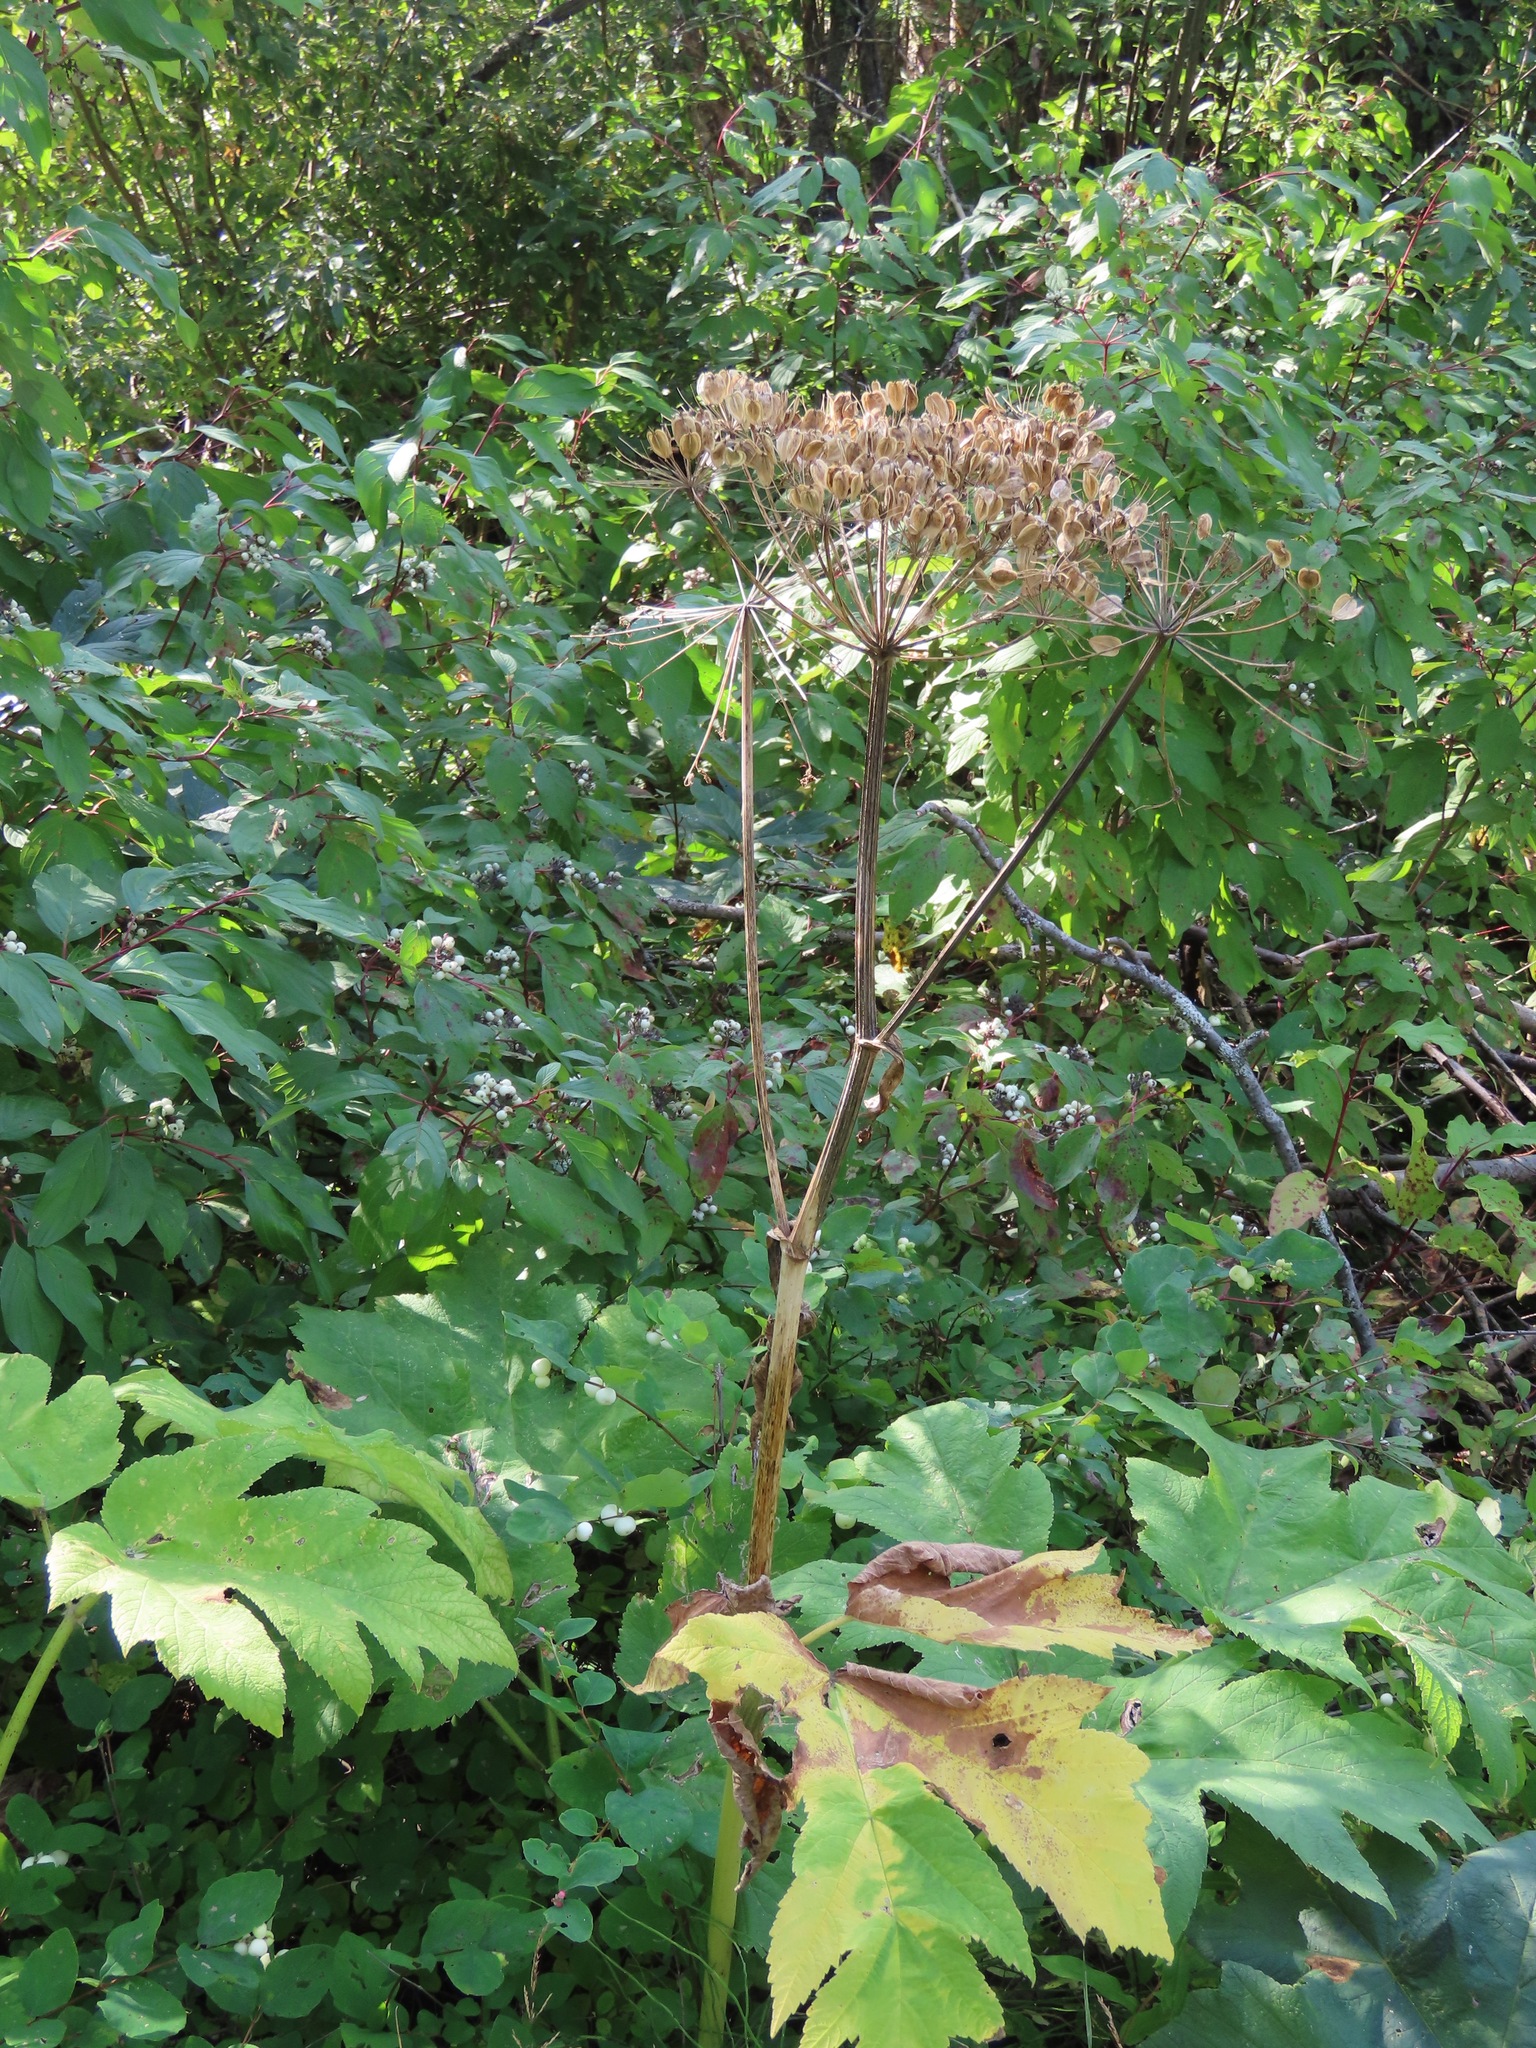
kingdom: Plantae
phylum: Tracheophyta
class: Magnoliopsida
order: Apiales
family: Apiaceae
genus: Heracleum
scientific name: Heracleum maximum
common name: American cow parsnip
